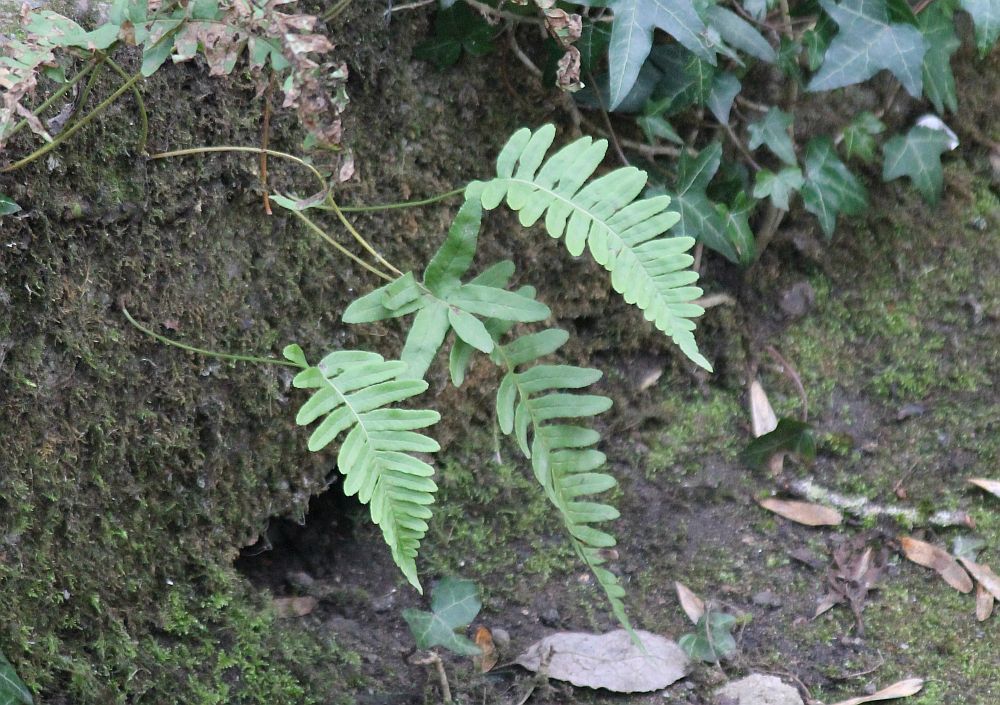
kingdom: Plantae
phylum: Tracheophyta
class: Polypodiopsida
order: Polypodiales
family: Polypodiaceae
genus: Polypodium
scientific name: Polypodium vulgare
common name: Common polypody
